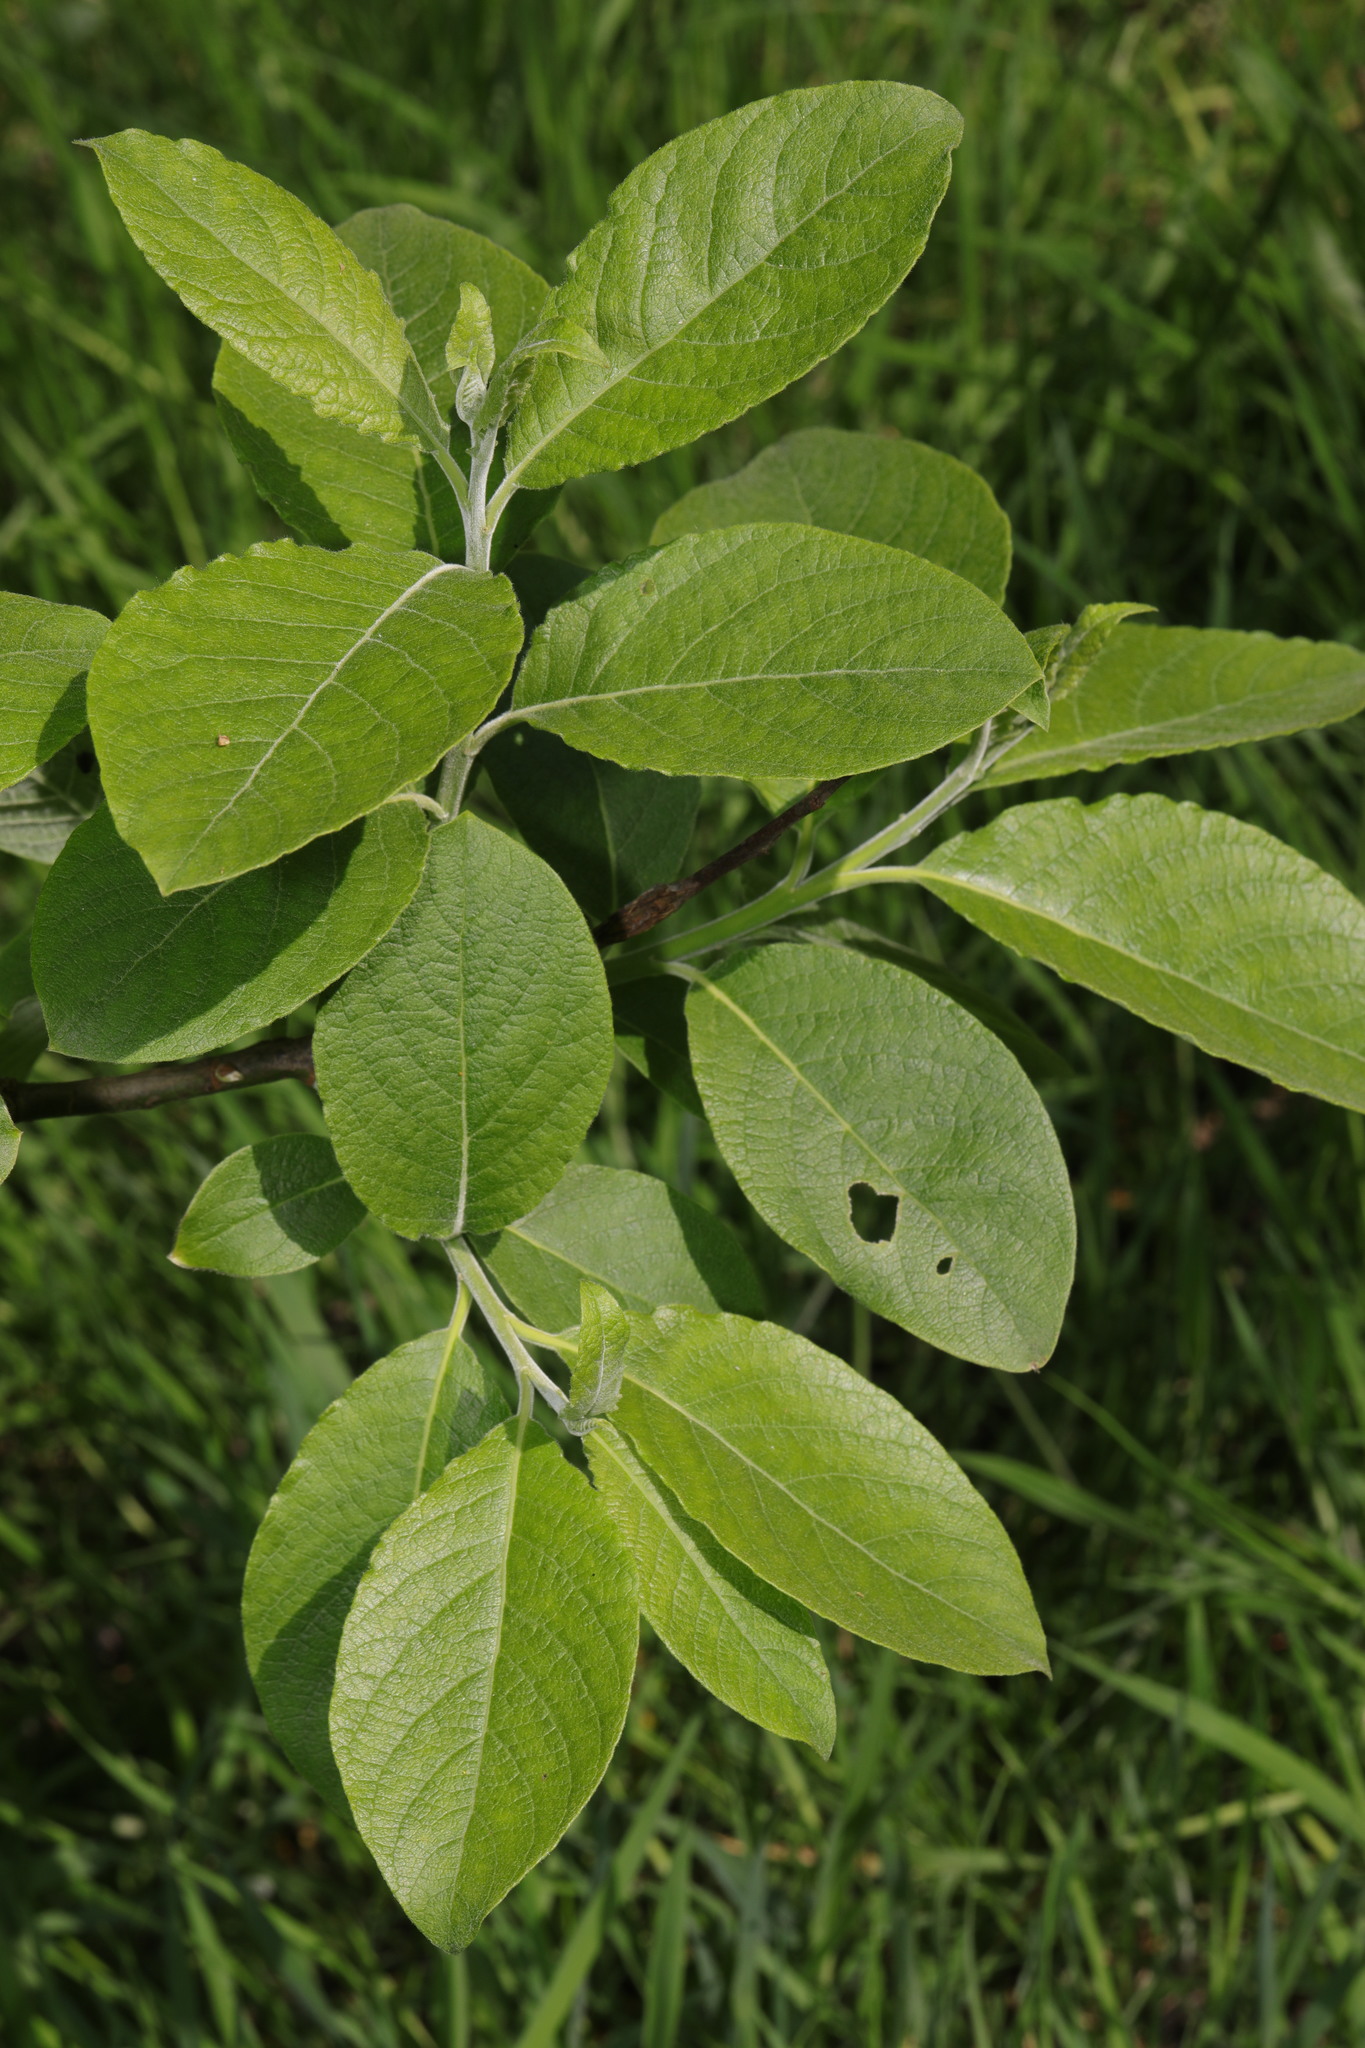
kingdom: Plantae
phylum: Tracheophyta
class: Magnoliopsida
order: Malpighiales
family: Salicaceae
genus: Salix
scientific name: Salix caprea
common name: Goat willow
